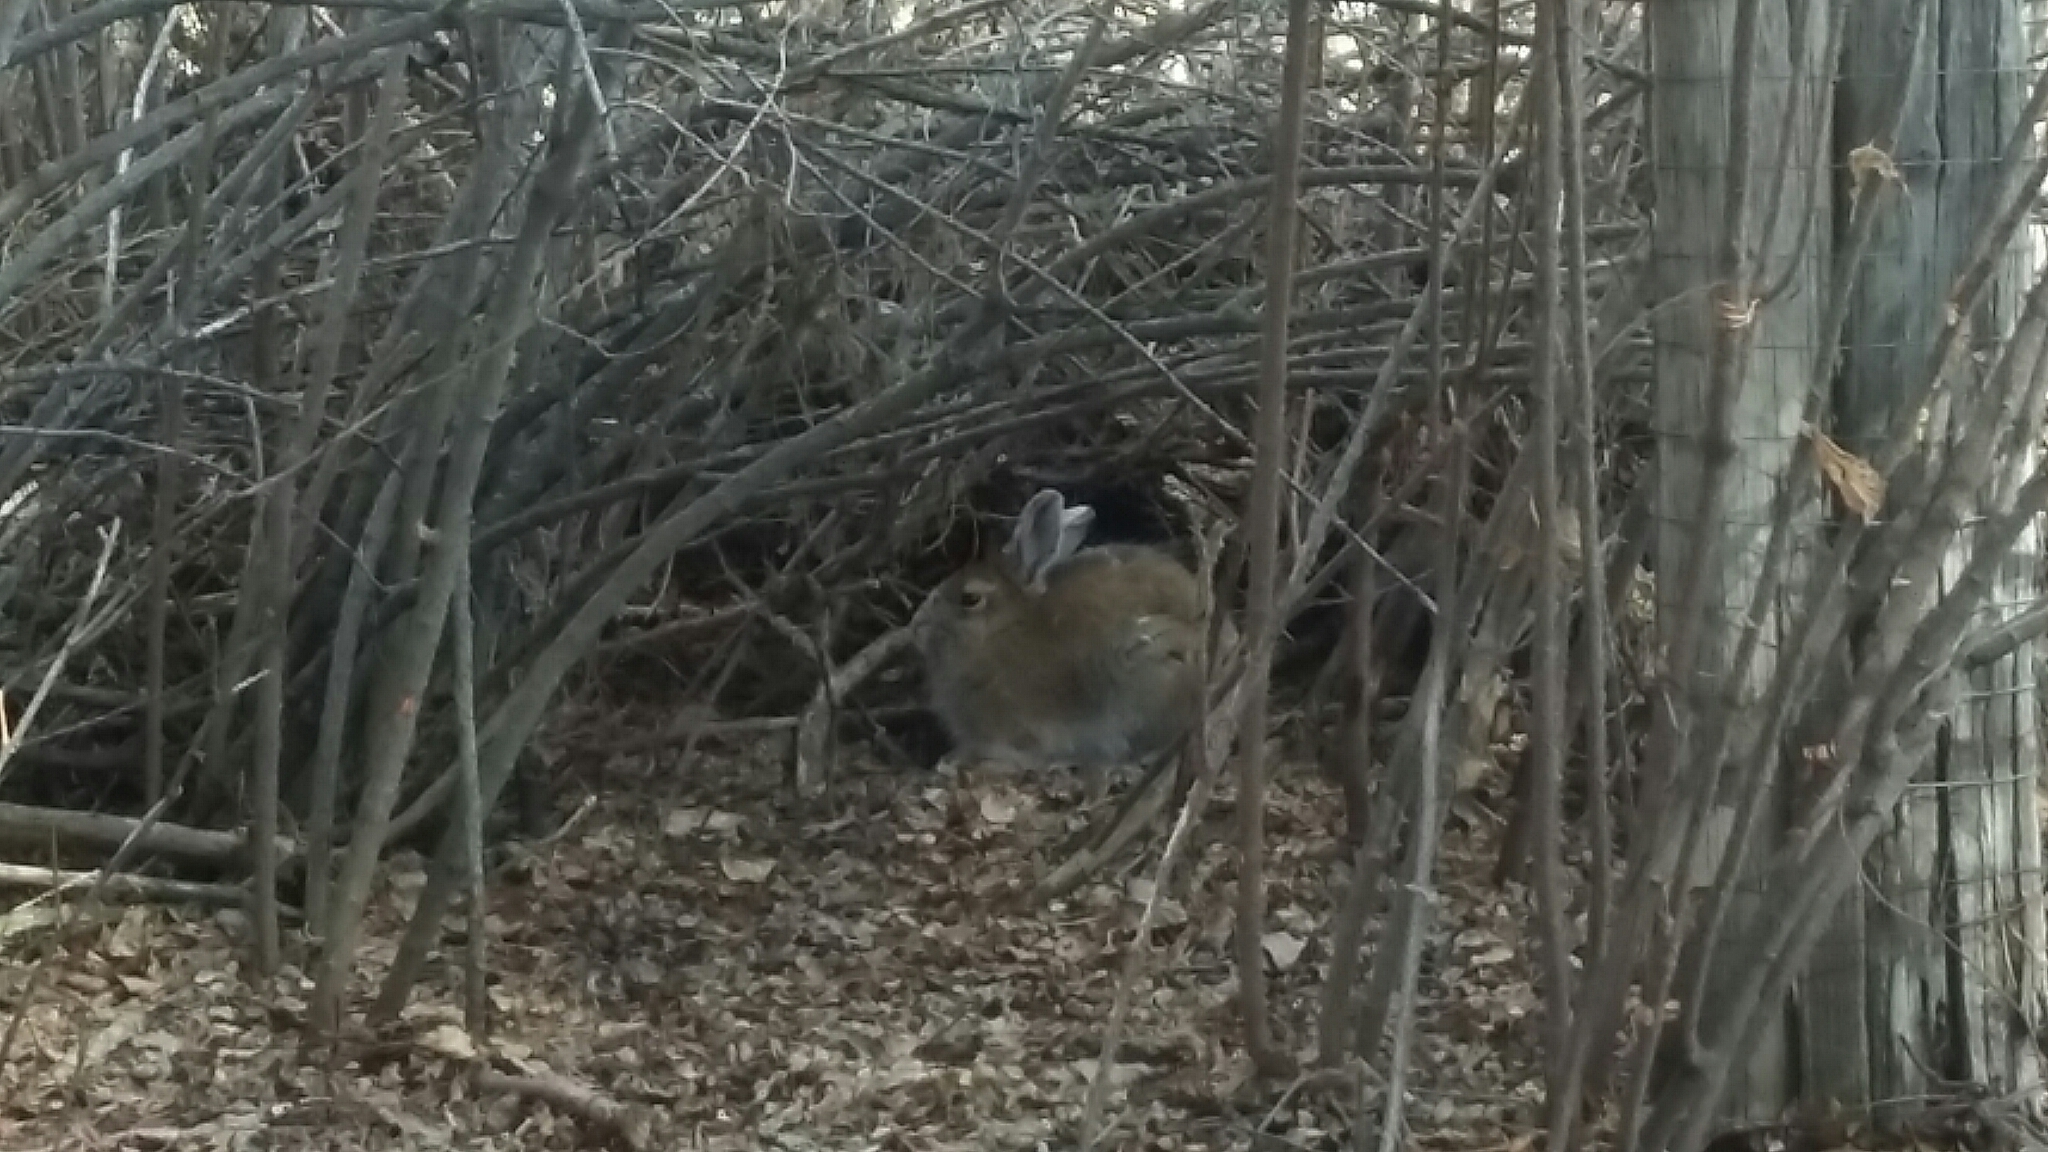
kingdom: Animalia
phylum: Chordata
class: Mammalia
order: Lagomorpha
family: Leporidae
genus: Lepus
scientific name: Lepus americanus
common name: Snowshoe hare
